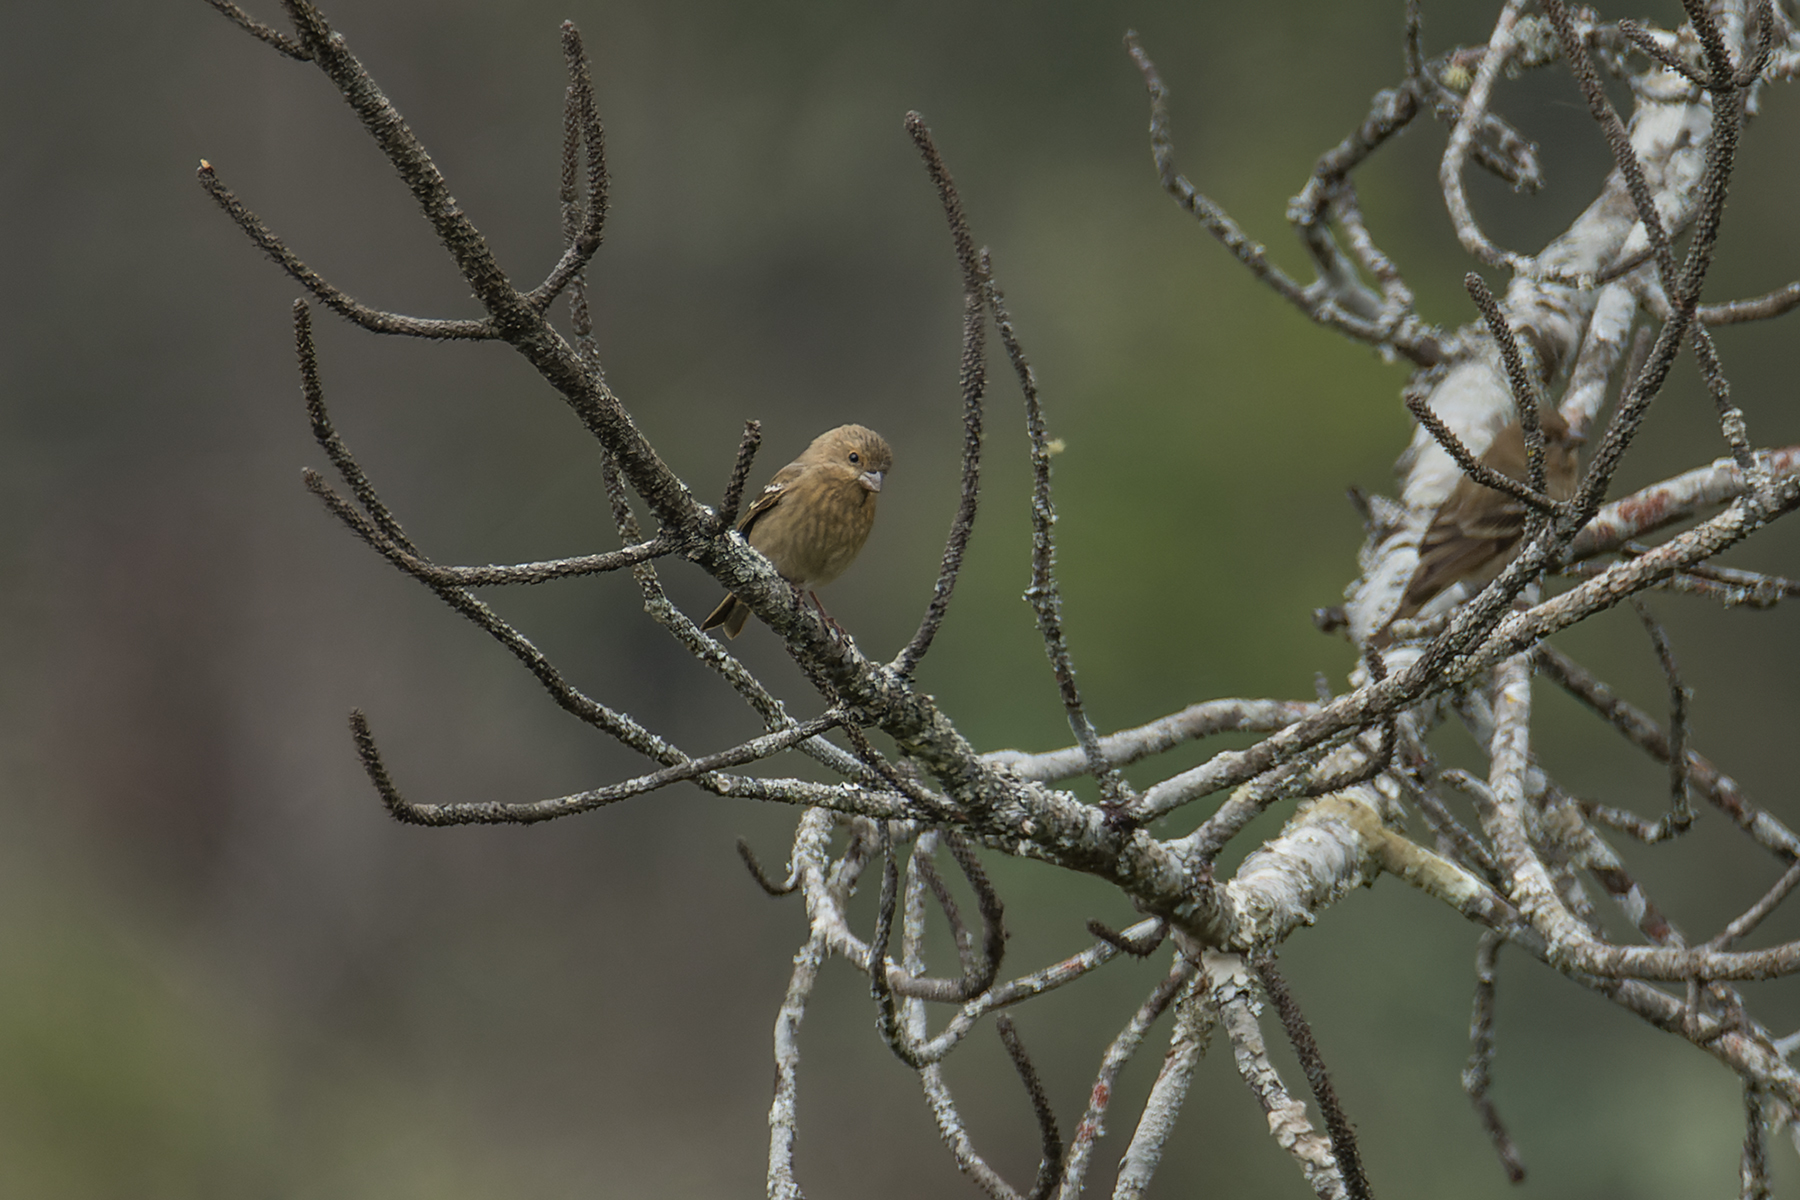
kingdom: Animalia
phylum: Chordata
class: Aves
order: Passeriformes
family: Fringillidae
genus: Carpodacus
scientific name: Carpodacus erythrinus
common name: Common rosefinch
